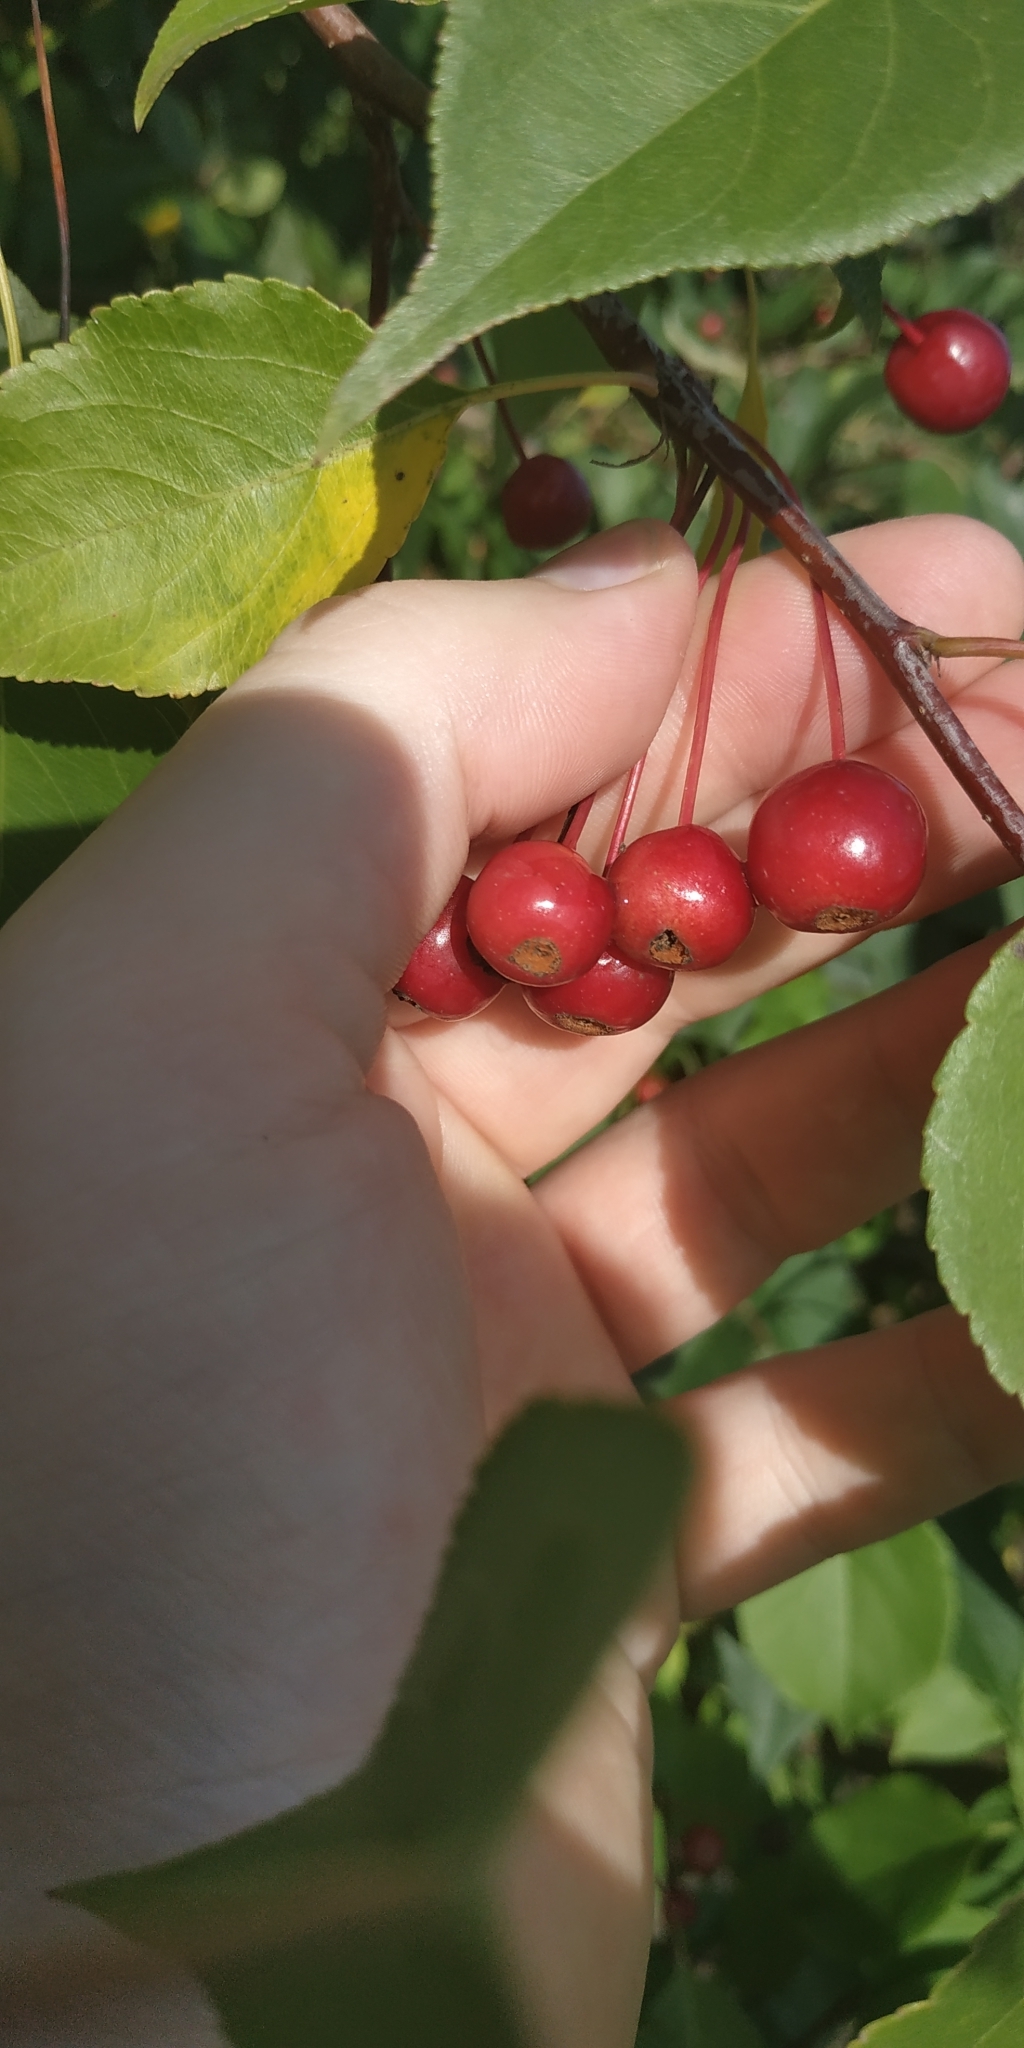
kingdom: Plantae
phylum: Tracheophyta
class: Magnoliopsida
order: Rosales
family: Rosaceae
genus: Malus
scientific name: Malus baccata
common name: Siberian crab
